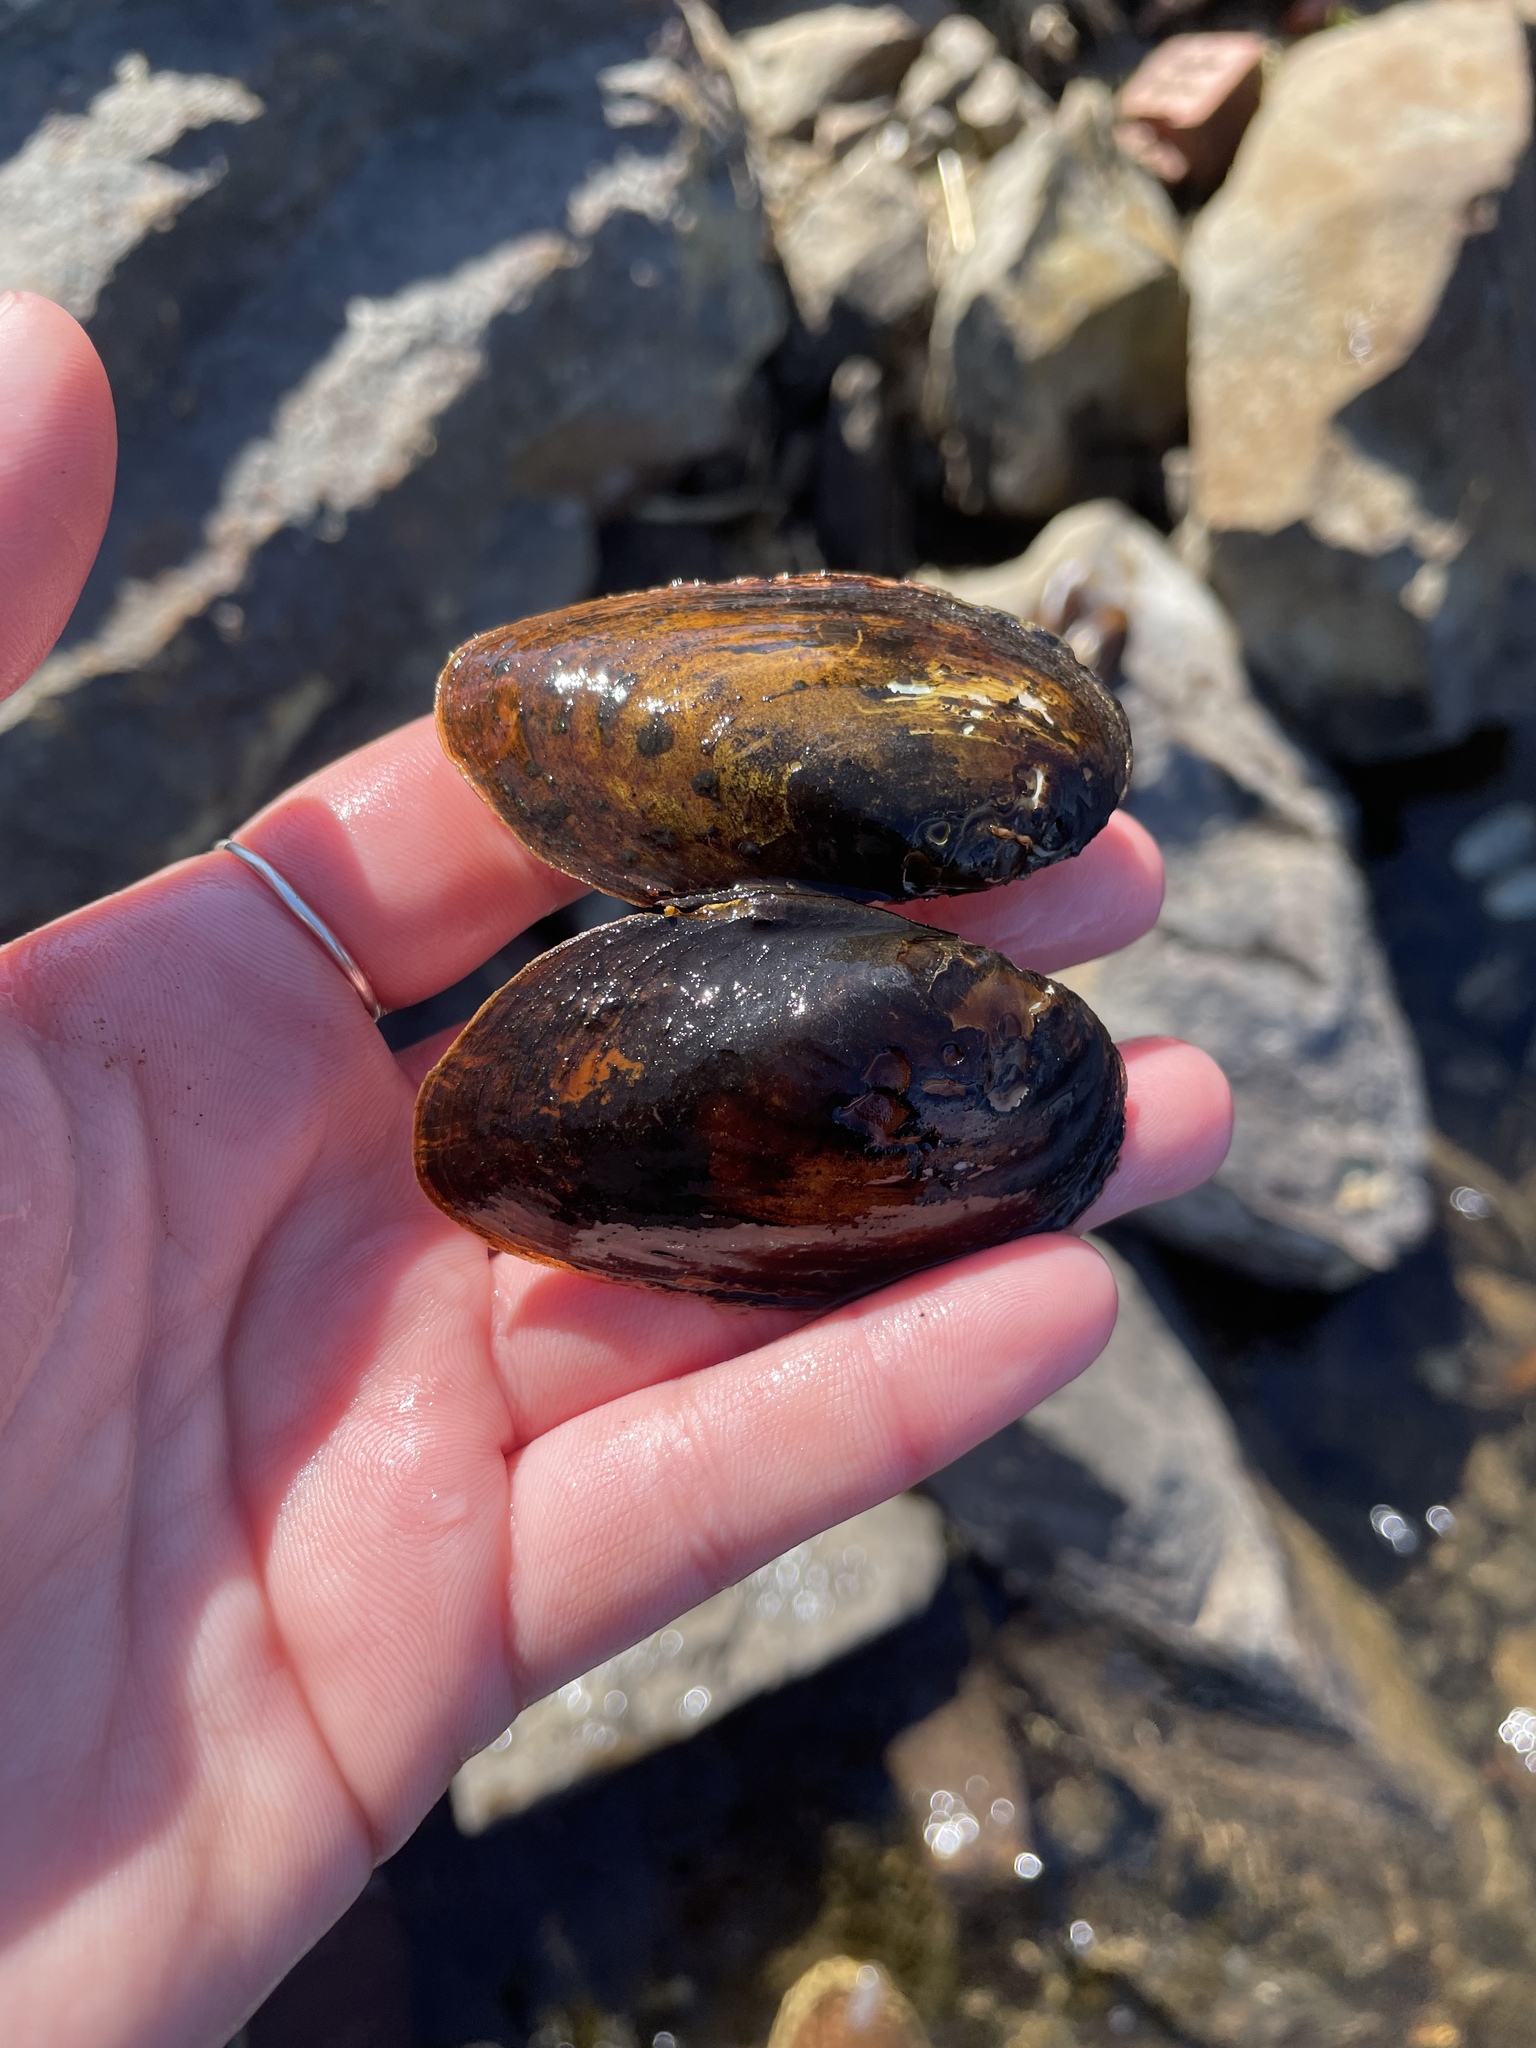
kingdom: Animalia
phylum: Mollusca
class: Bivalvia
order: Unionida
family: Unionidae
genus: Elliptio
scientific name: Elliptio complanata
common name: Eastern elliptio
